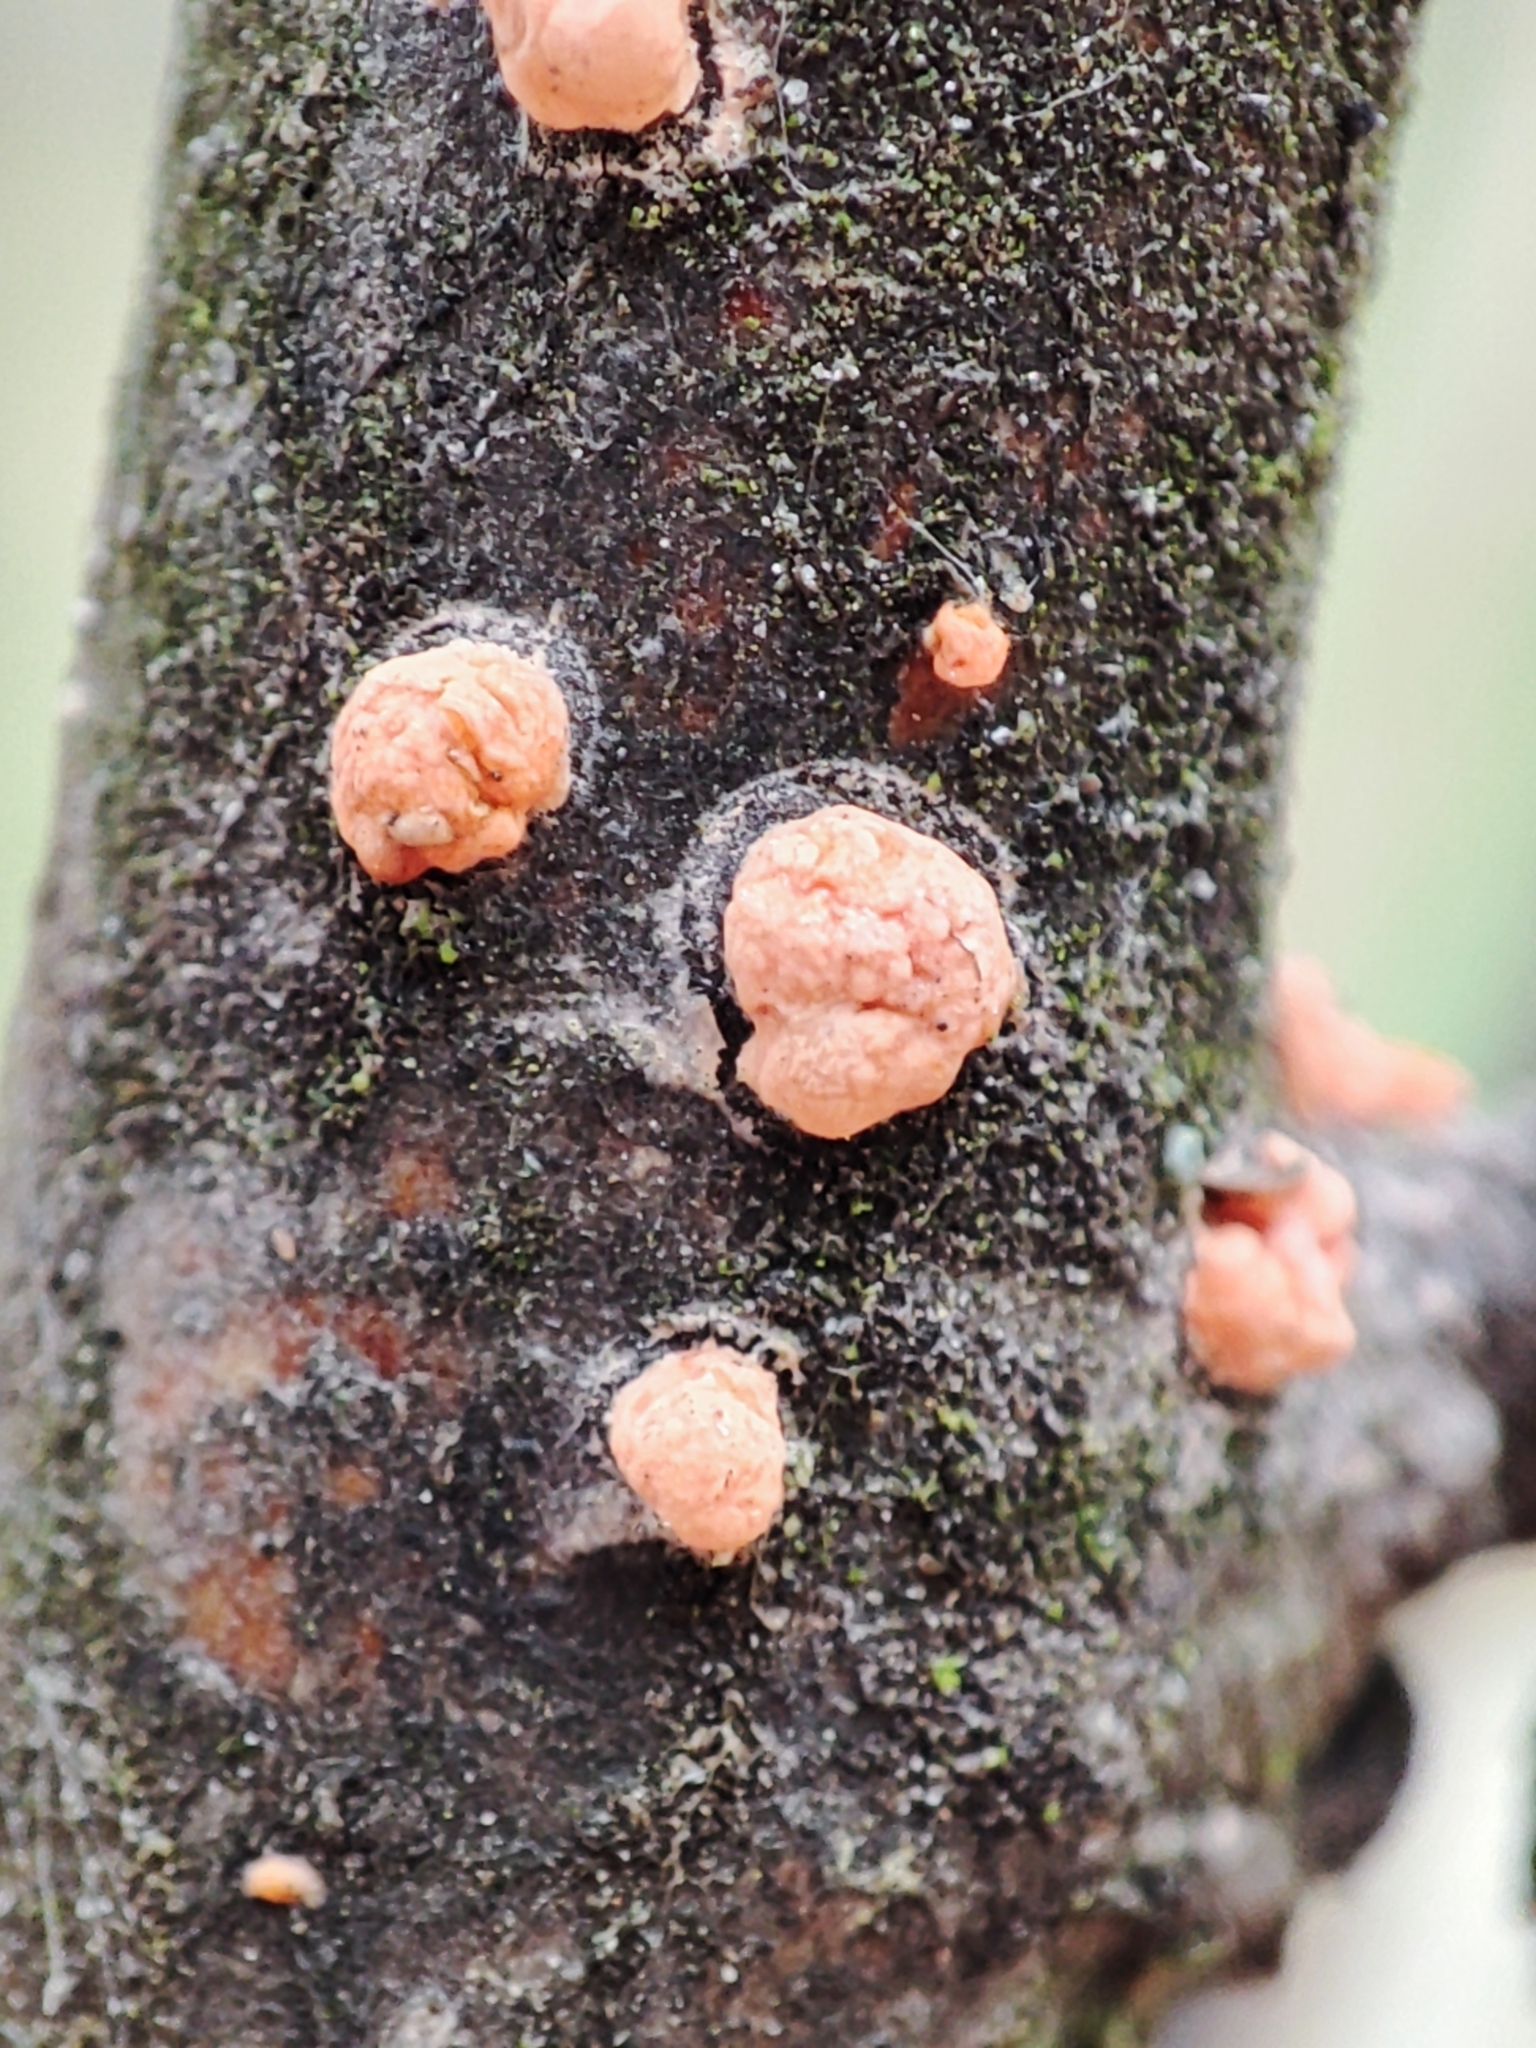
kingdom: Fungi
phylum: Ascomycota
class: Sordariomycetes
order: Hypocreales
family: Nectriaceae
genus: Nectria
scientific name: Nectria cinnabarina
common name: Coral spot
